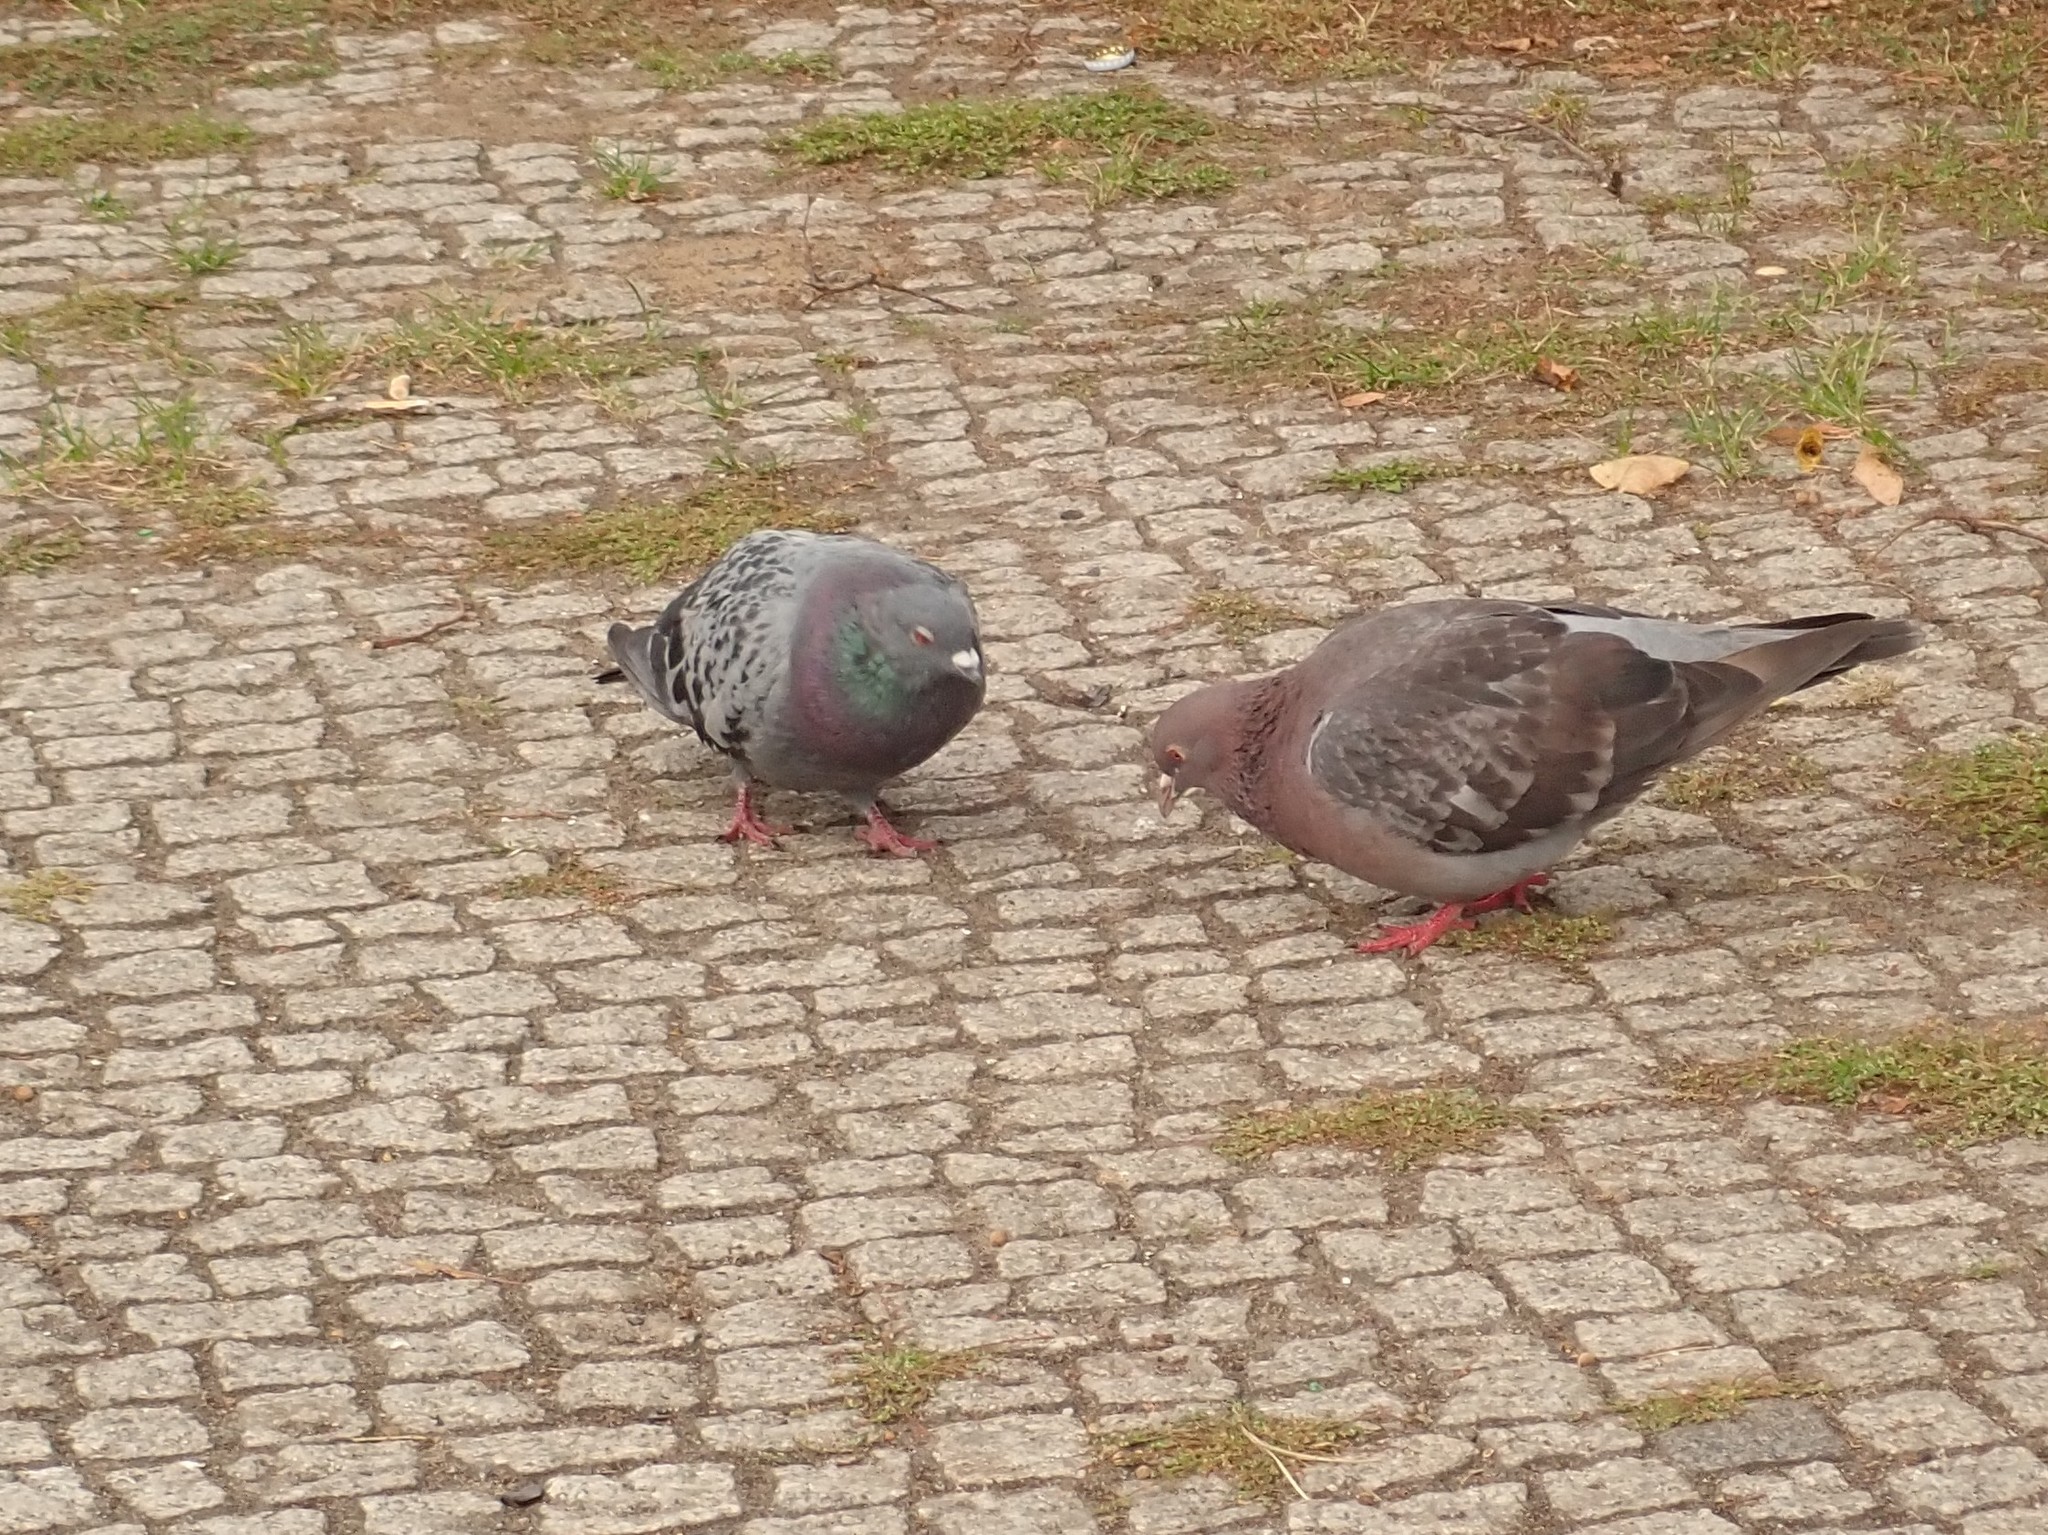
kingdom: Animalia
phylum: Chordata
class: Aves
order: Columbiformes
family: Columbidae
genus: Columba
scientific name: Columba livia
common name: Rock pigeon
